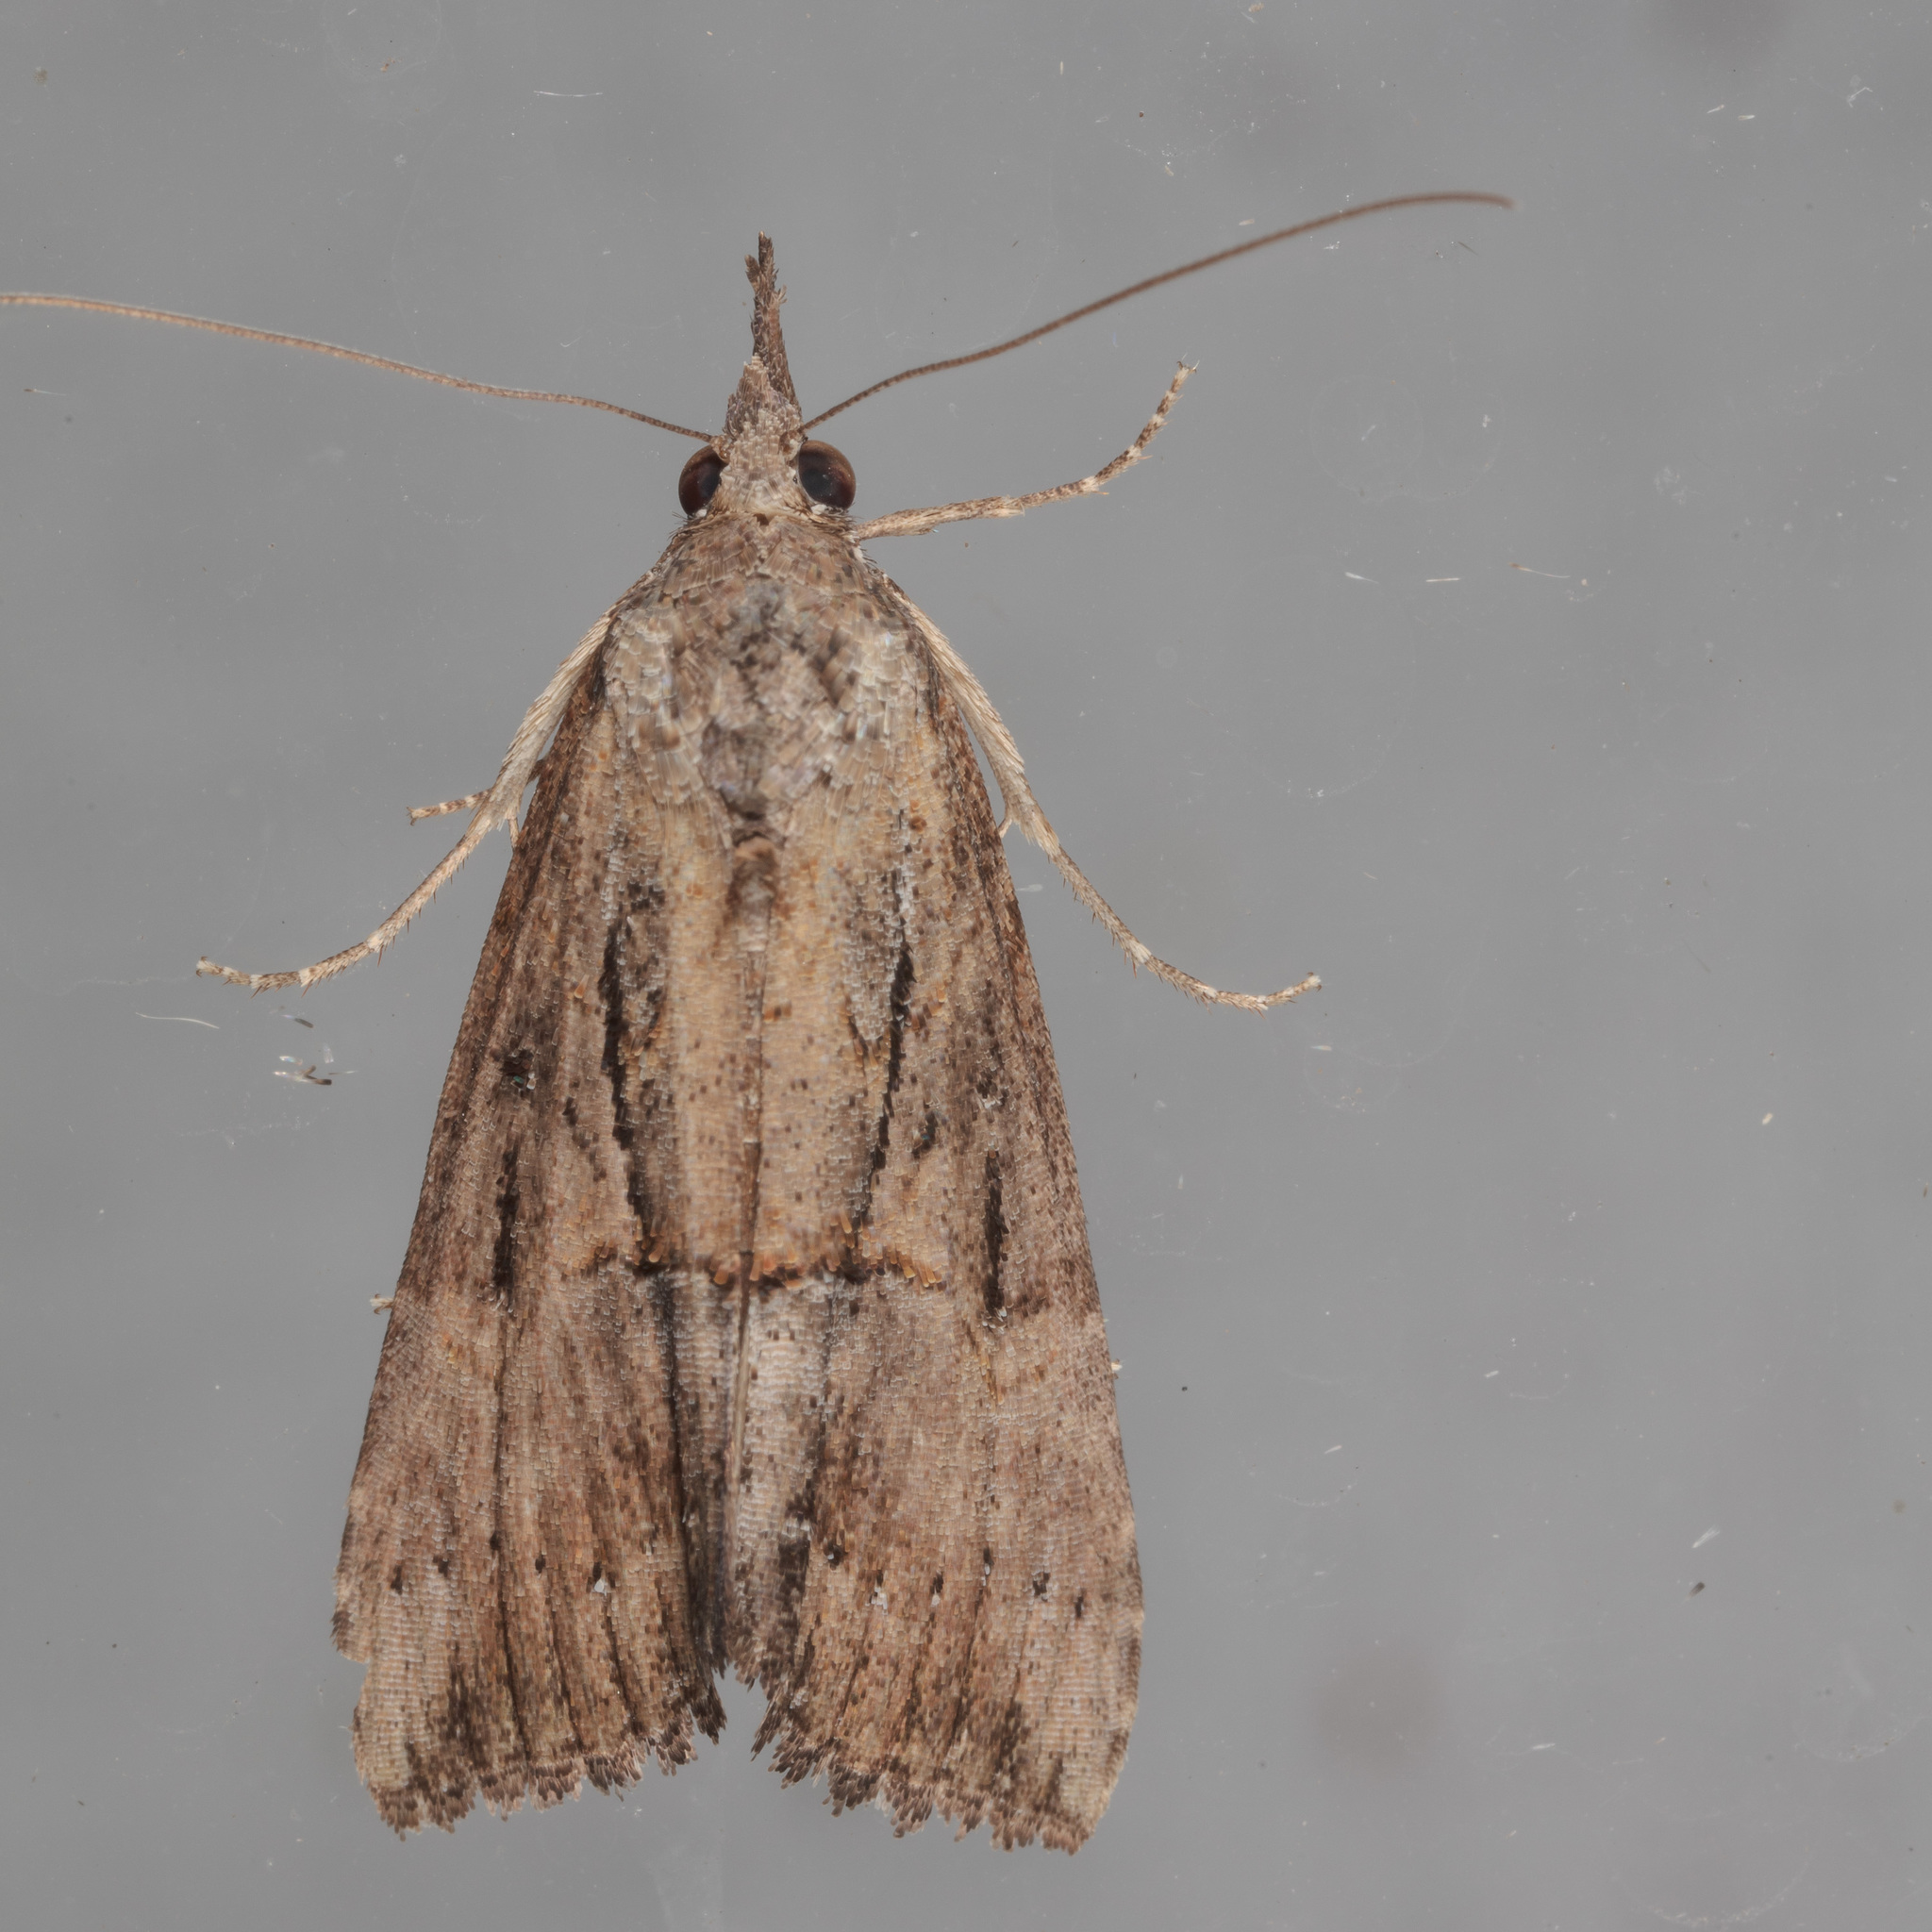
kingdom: Animalia
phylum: Arthropoda
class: Insecta
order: Lepidoptera
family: Erebidae
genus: Hypena
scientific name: Hypena scabra
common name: Green cloverworm
